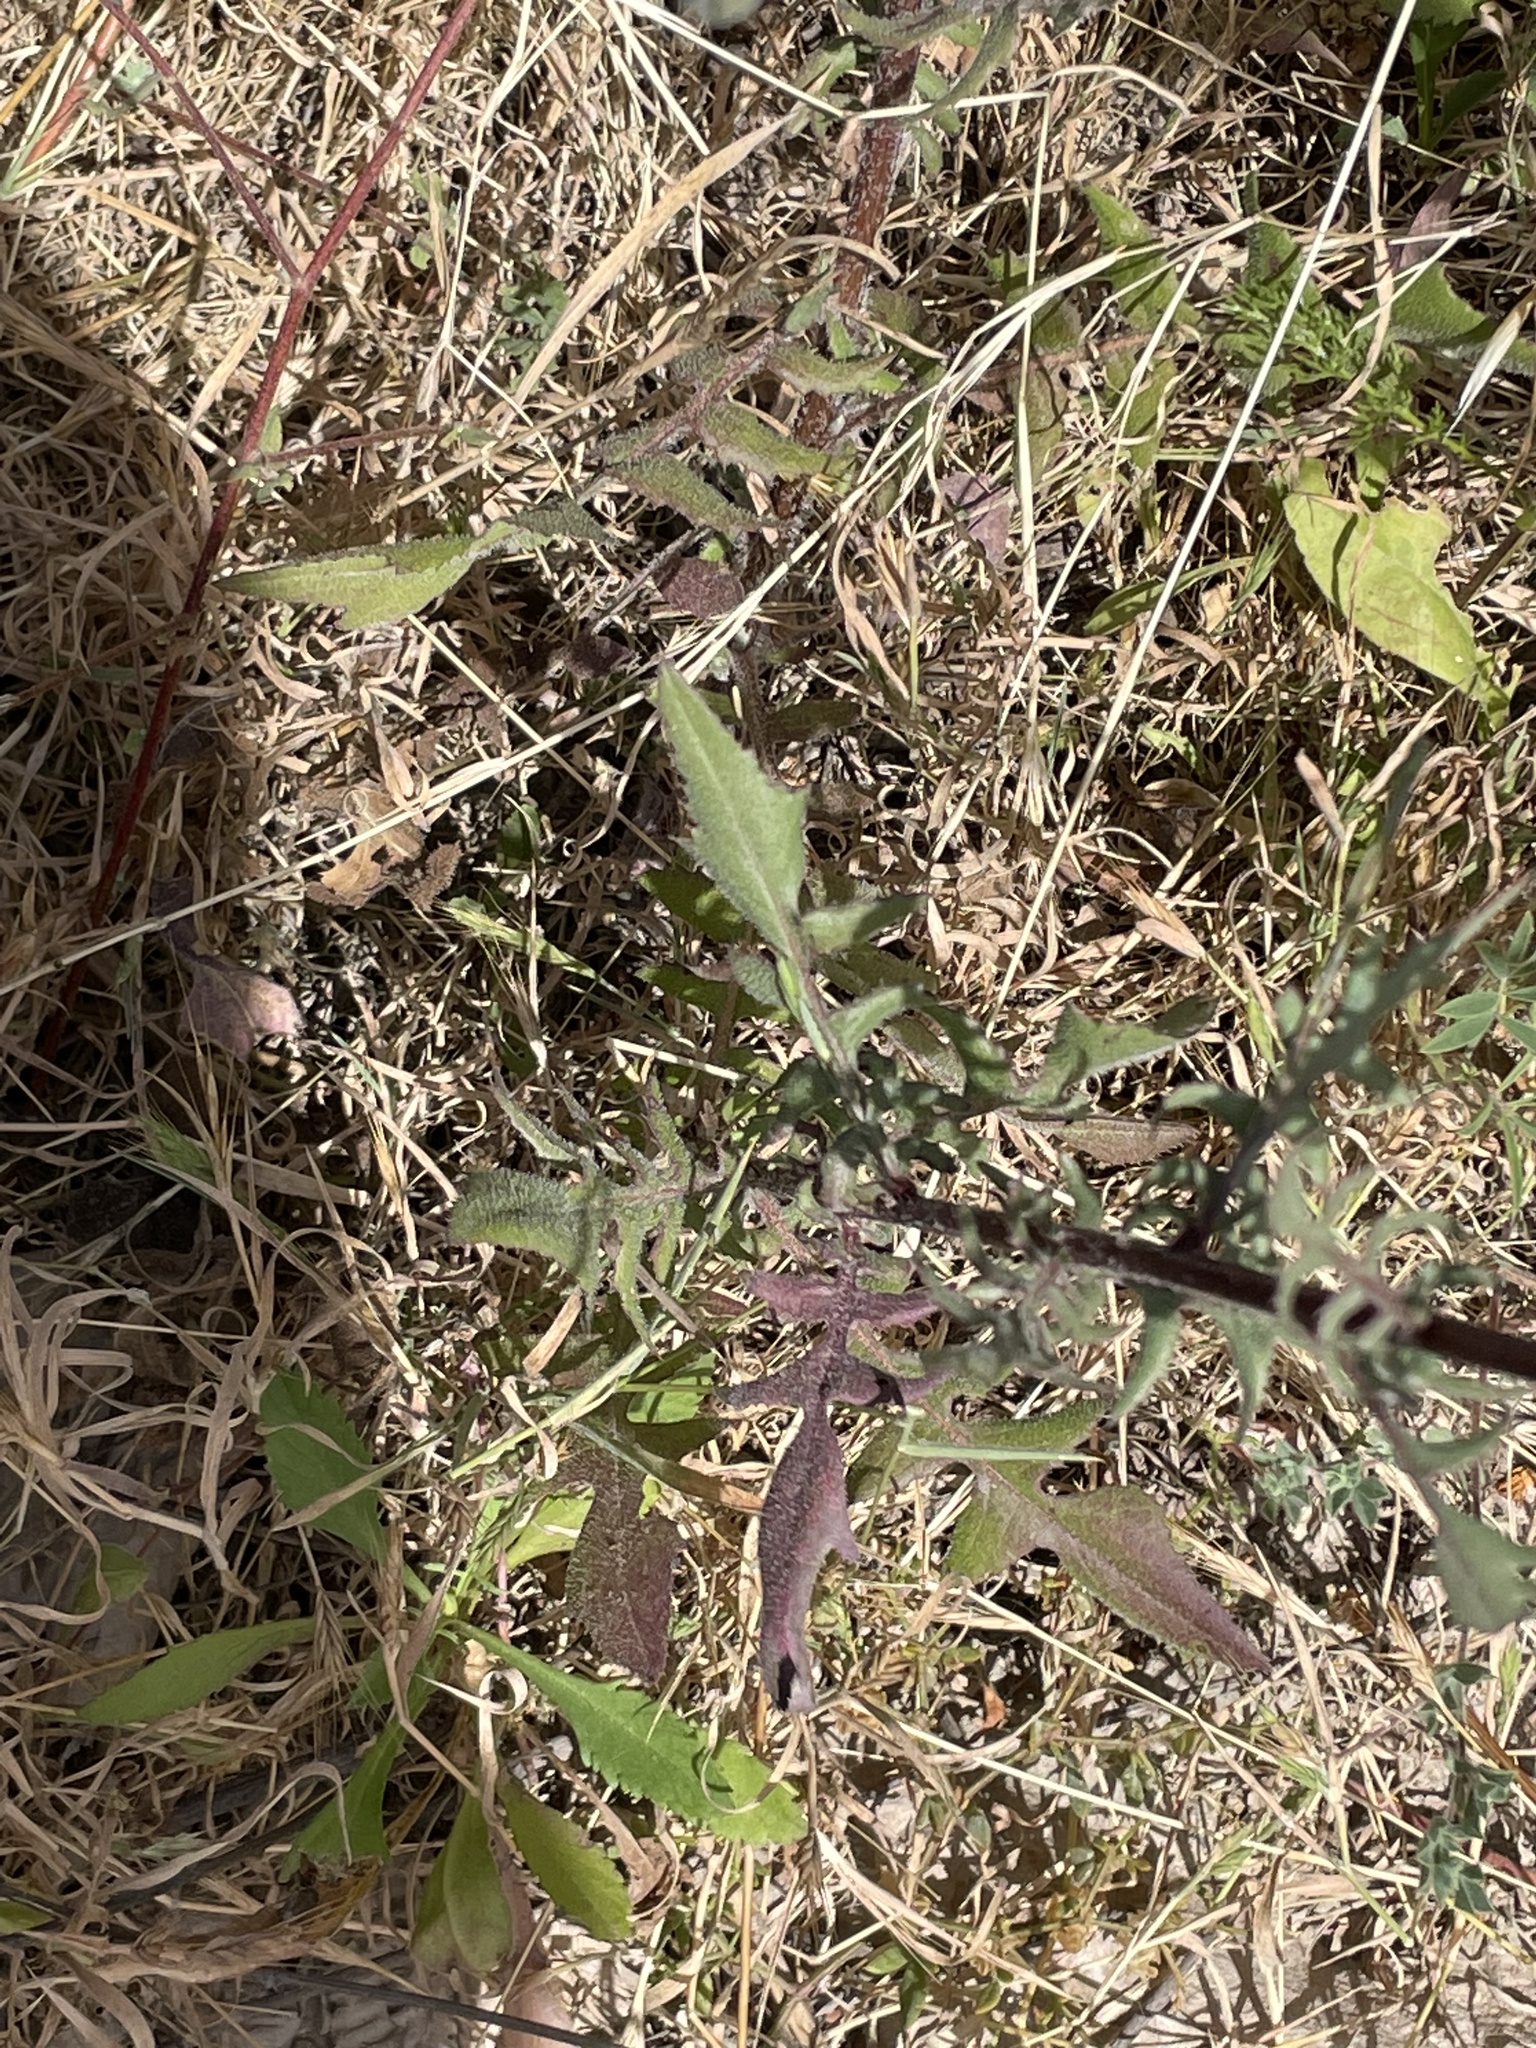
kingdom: Plantae
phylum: Tracheophyta
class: Magnoliopsida
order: Asterales
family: Asteraceae
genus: Mantisalca
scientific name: Mantisalca salmantica
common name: Dagger flower
